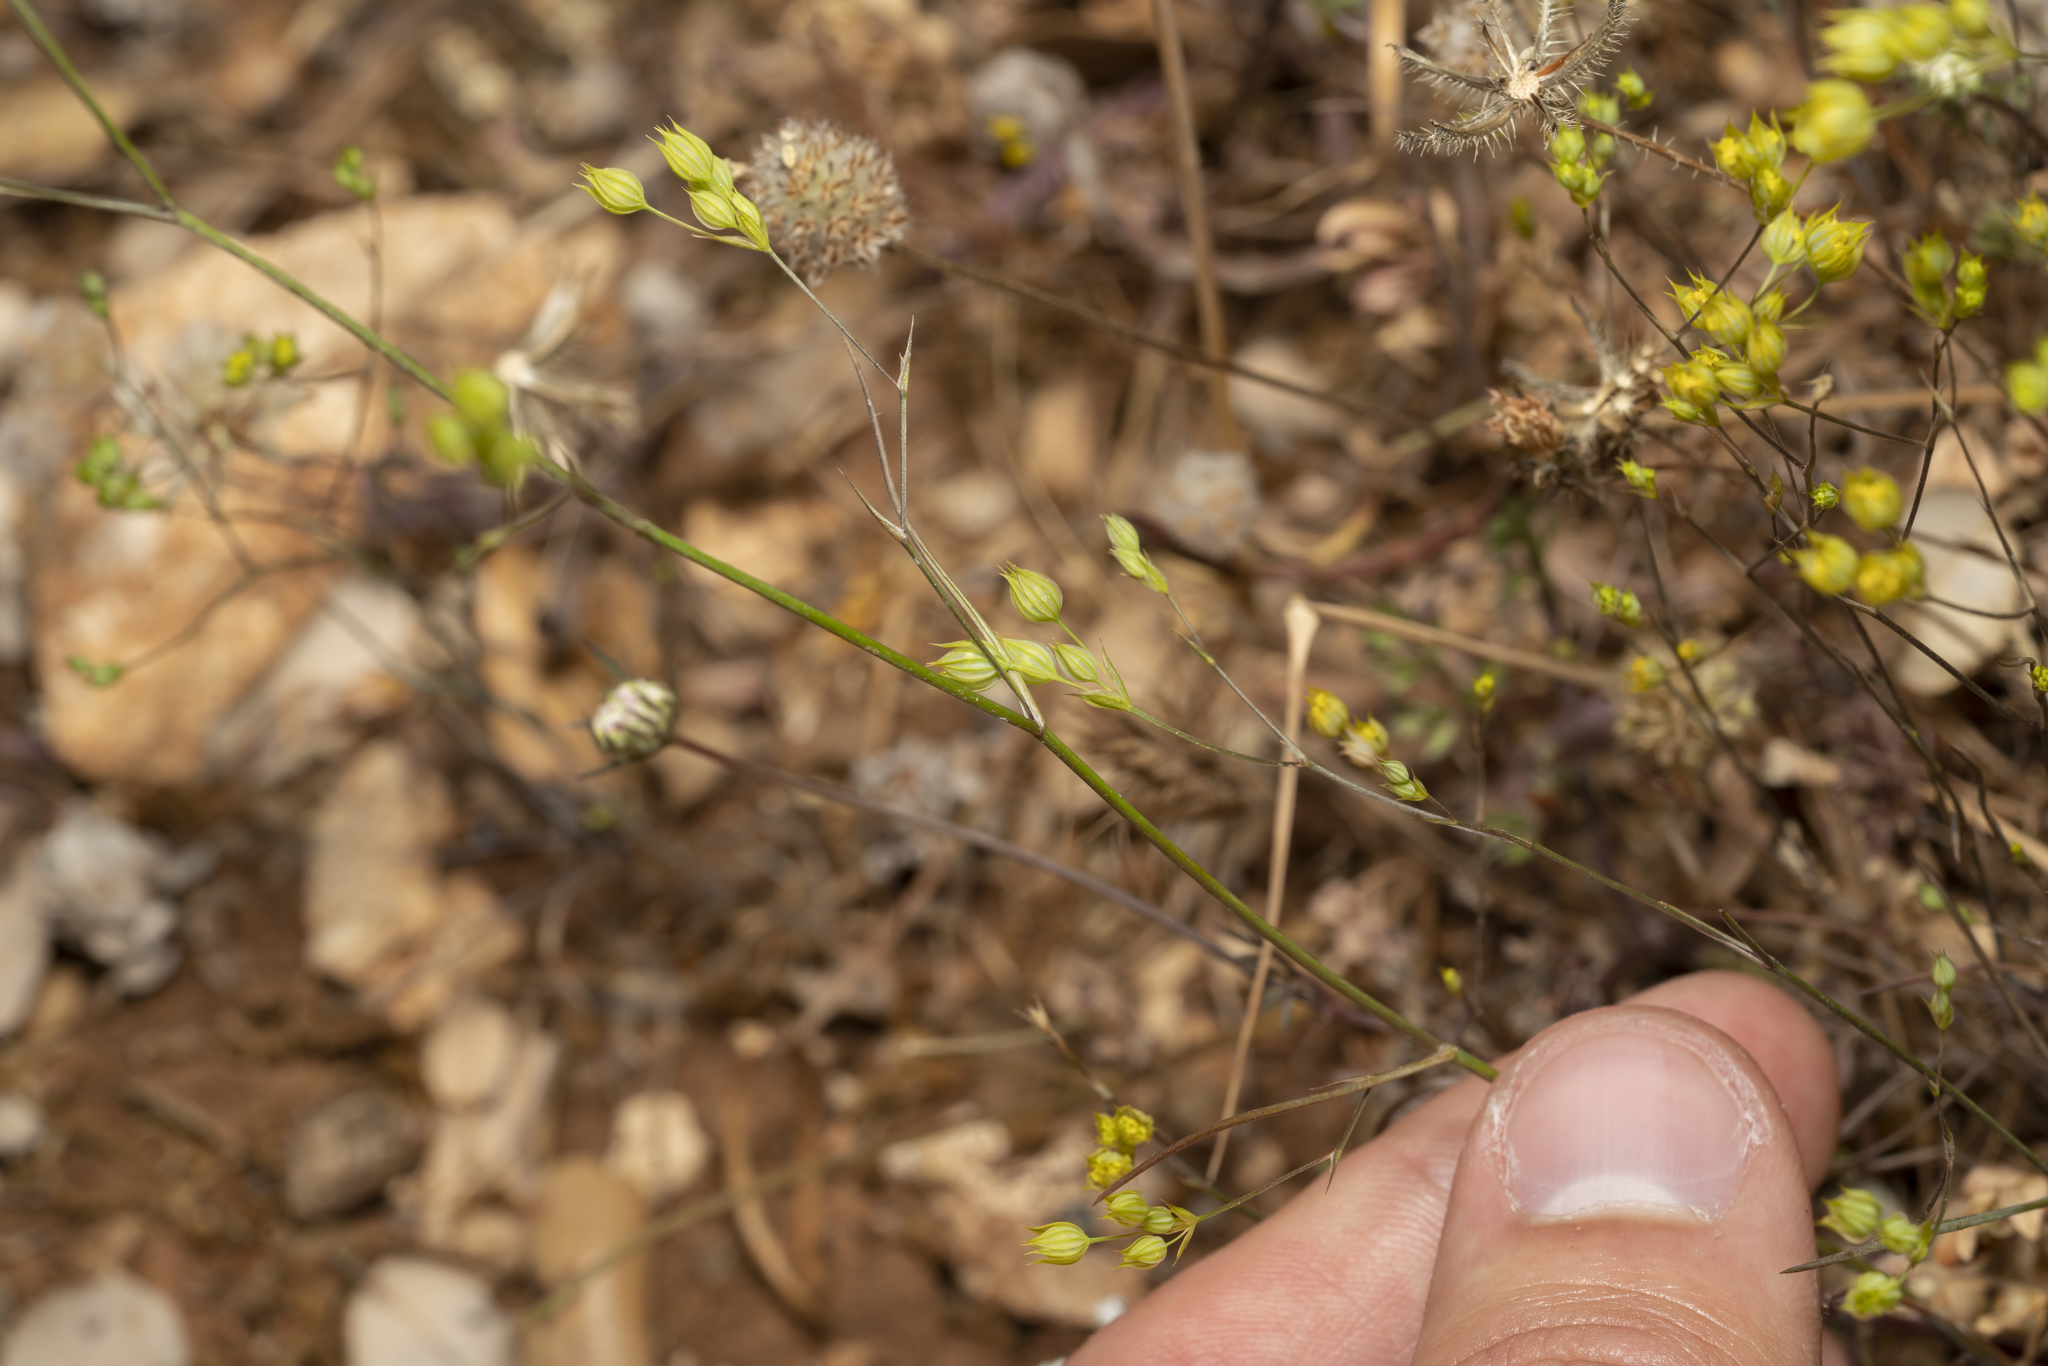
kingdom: Plantae
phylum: Tracheophyta
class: Magnoliopsida
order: Apiales
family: Apiaceae
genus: Bupleurum
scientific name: Bupleurum gracile
